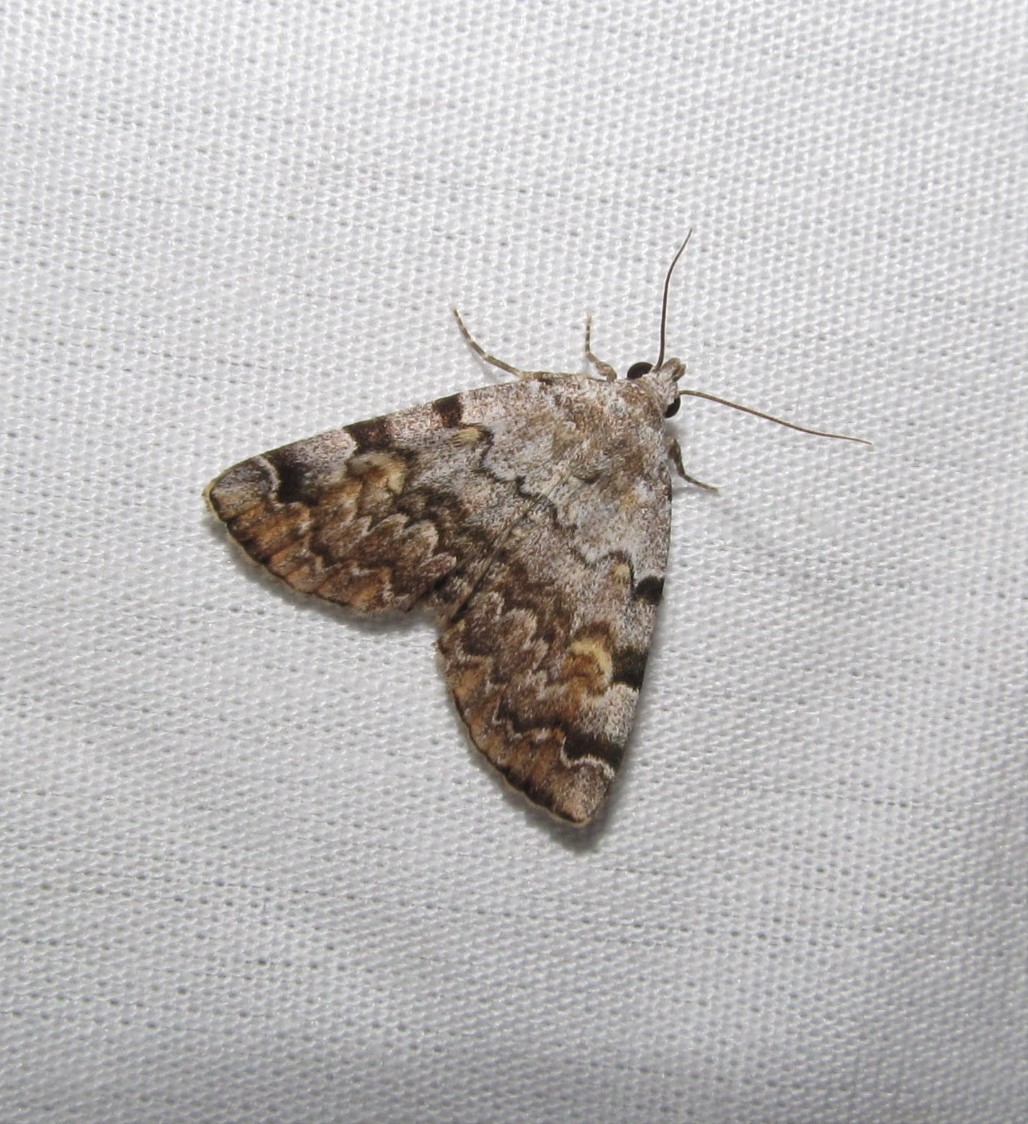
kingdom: Animalia
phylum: Arthropoda
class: Insecta
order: Lepidoptera
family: Erebidae
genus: Idia
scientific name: Idia americalis
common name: American idia moth
